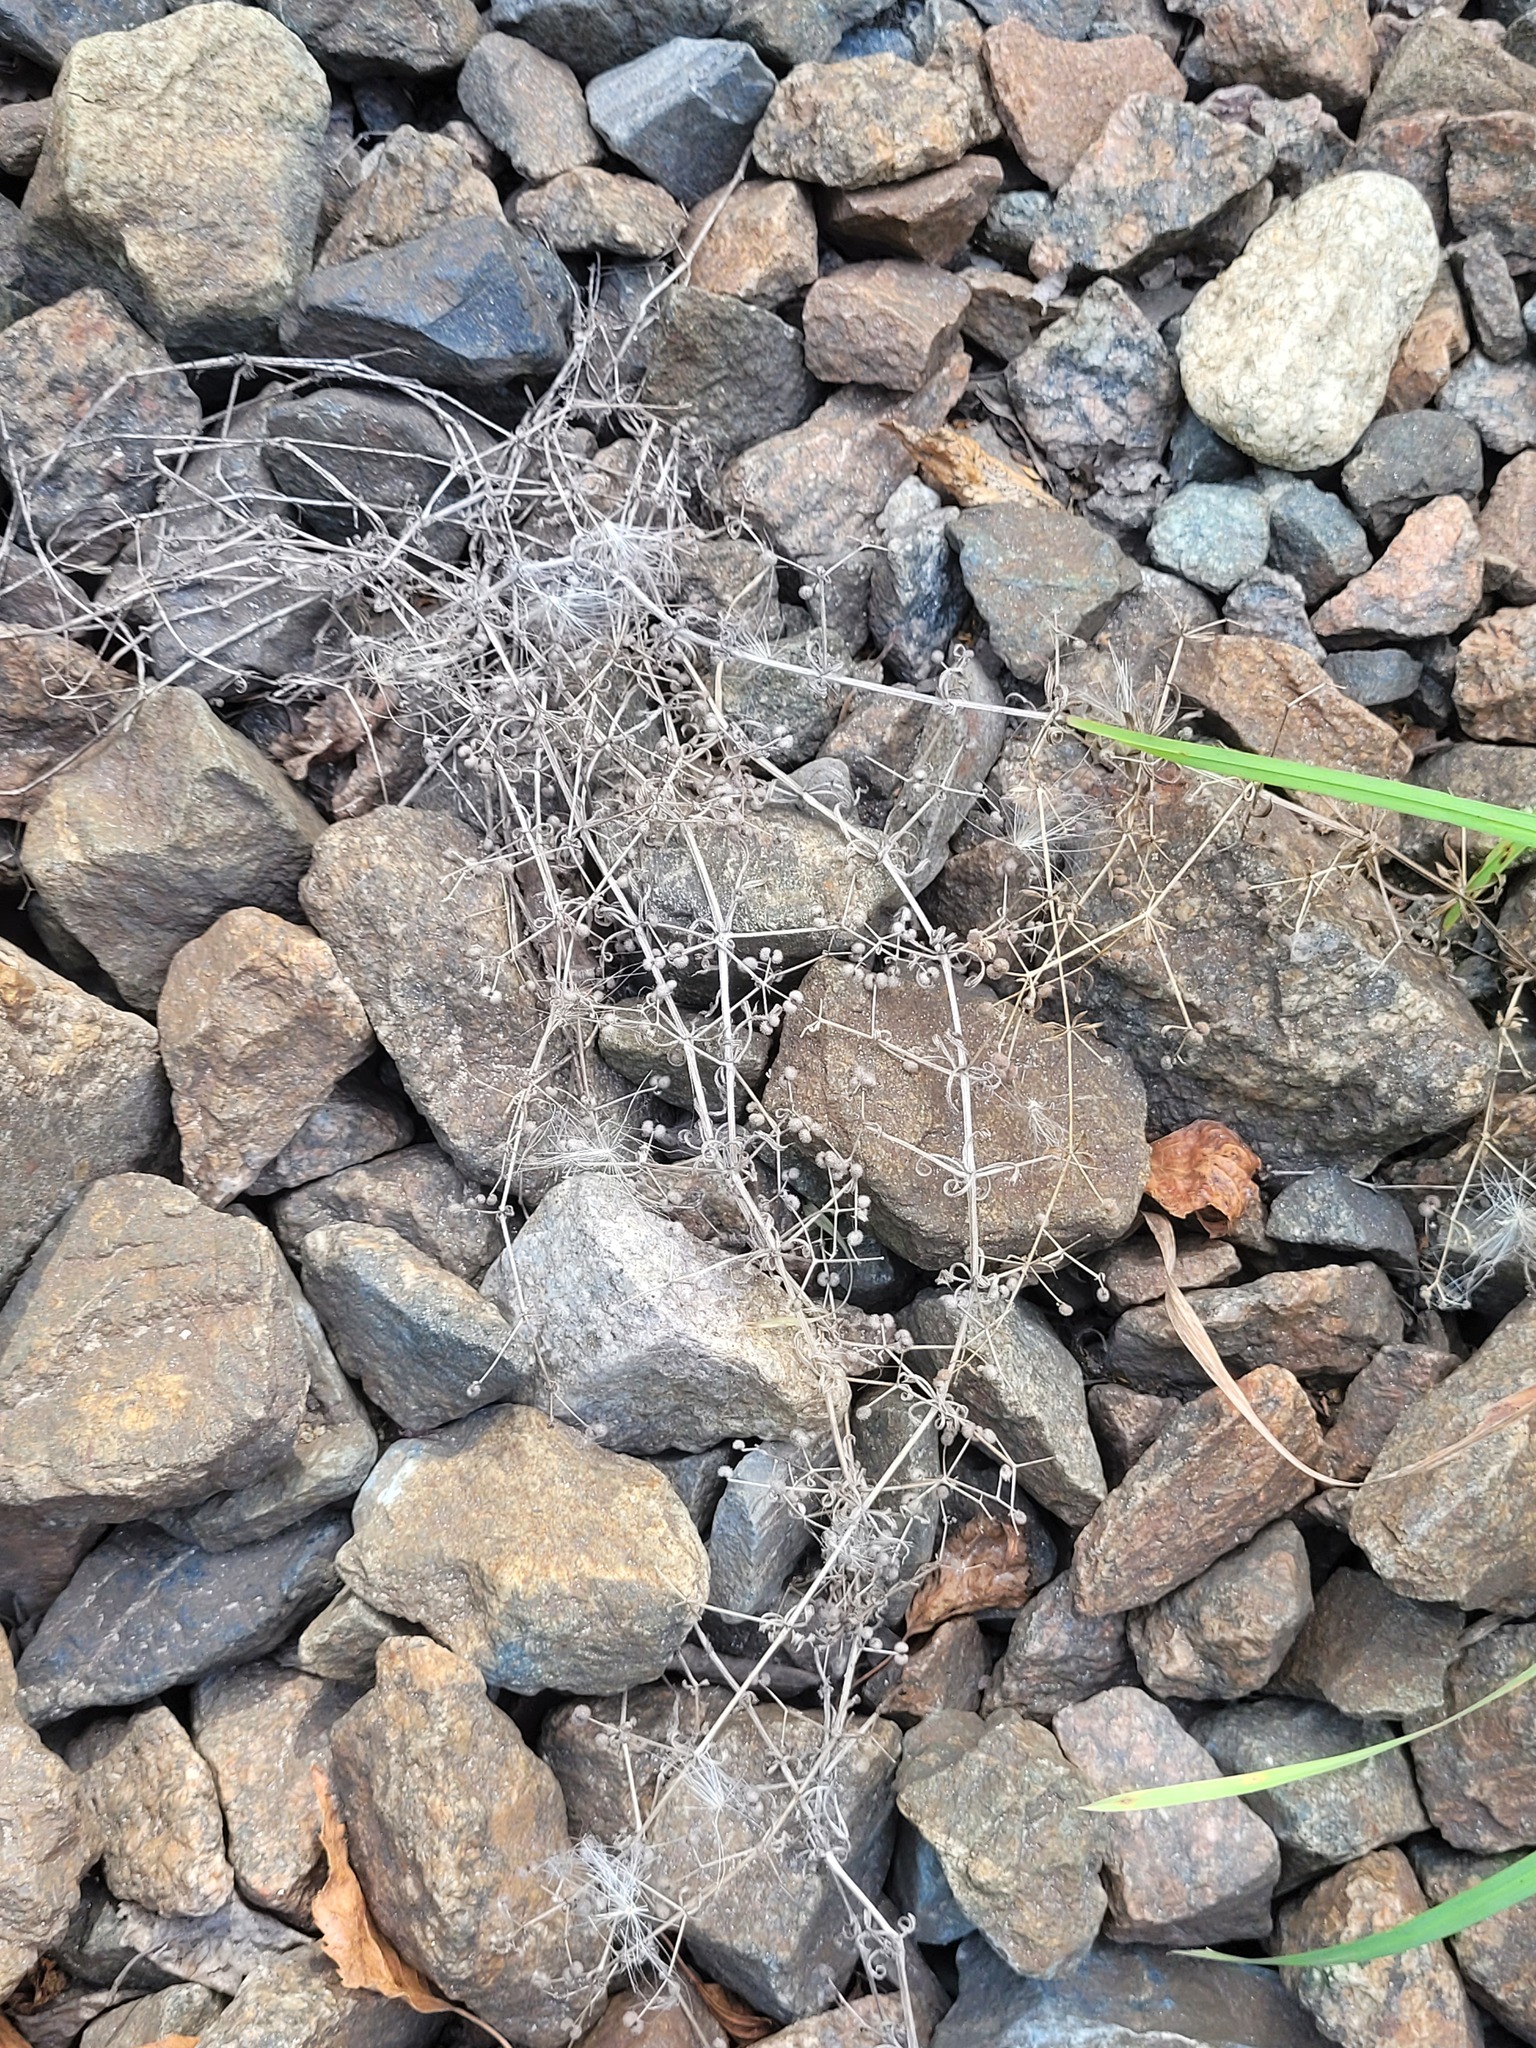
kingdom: Plantae
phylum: Tracheophyta
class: Magnoliopsida
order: Gentianales
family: Rubiaceae
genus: Galium
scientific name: Galium
